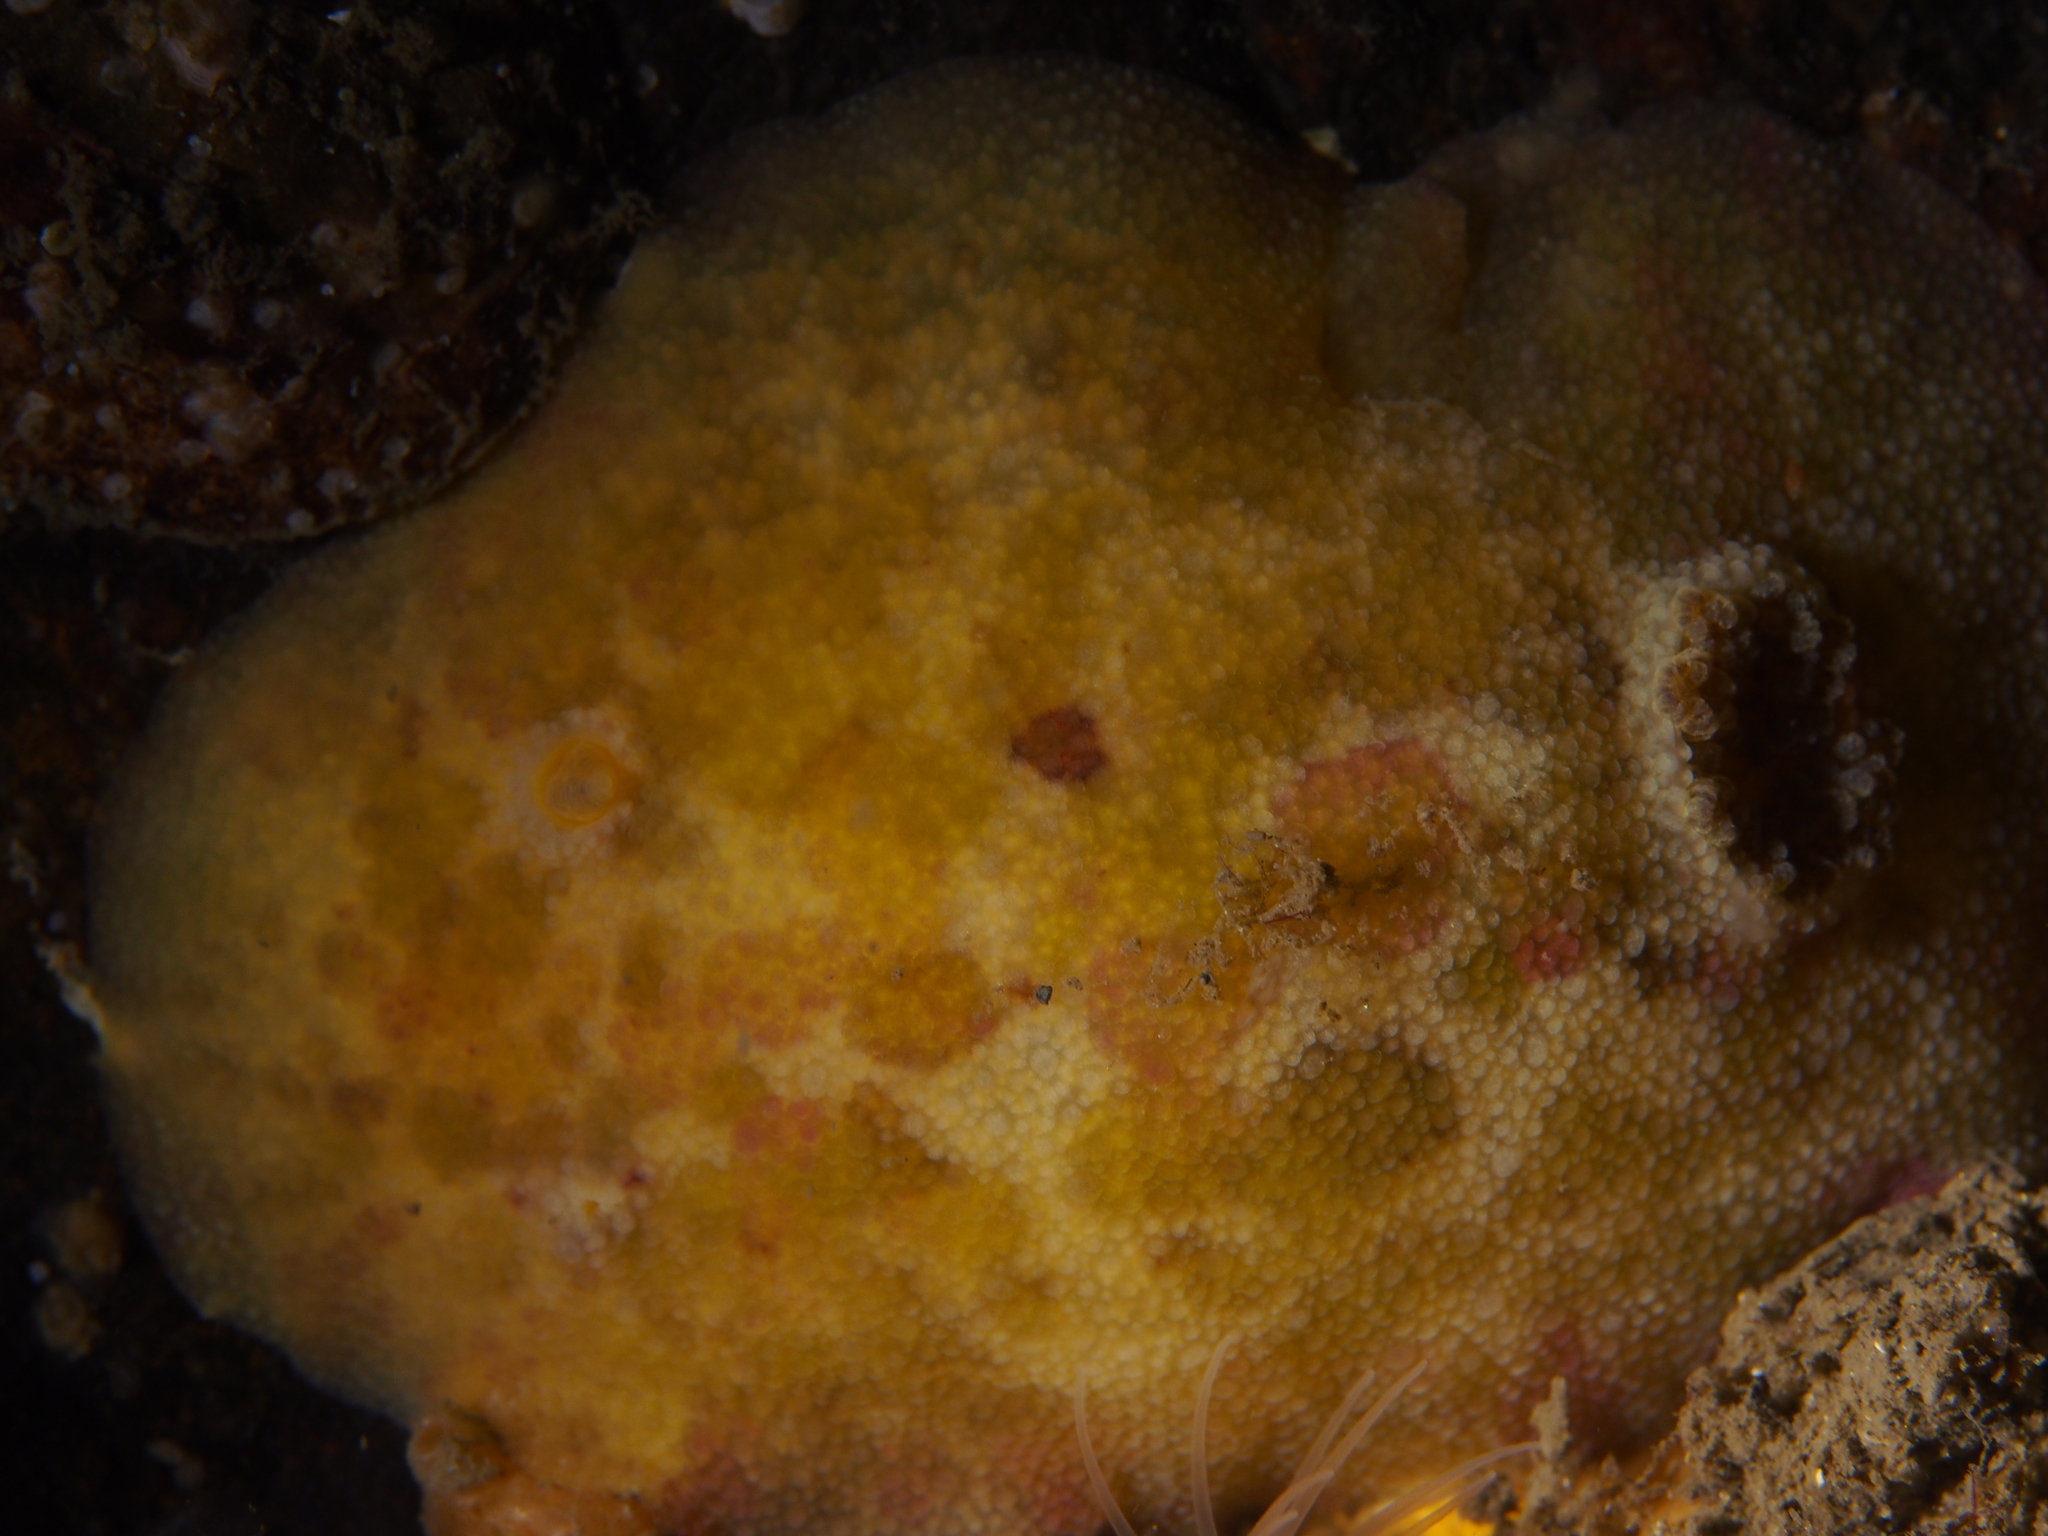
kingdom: Animalia
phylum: Mollusca
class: Gastropoda
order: Nudibranchia
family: Dorididae
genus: Doris
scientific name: Doris pseudoargus
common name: Sea lemon
